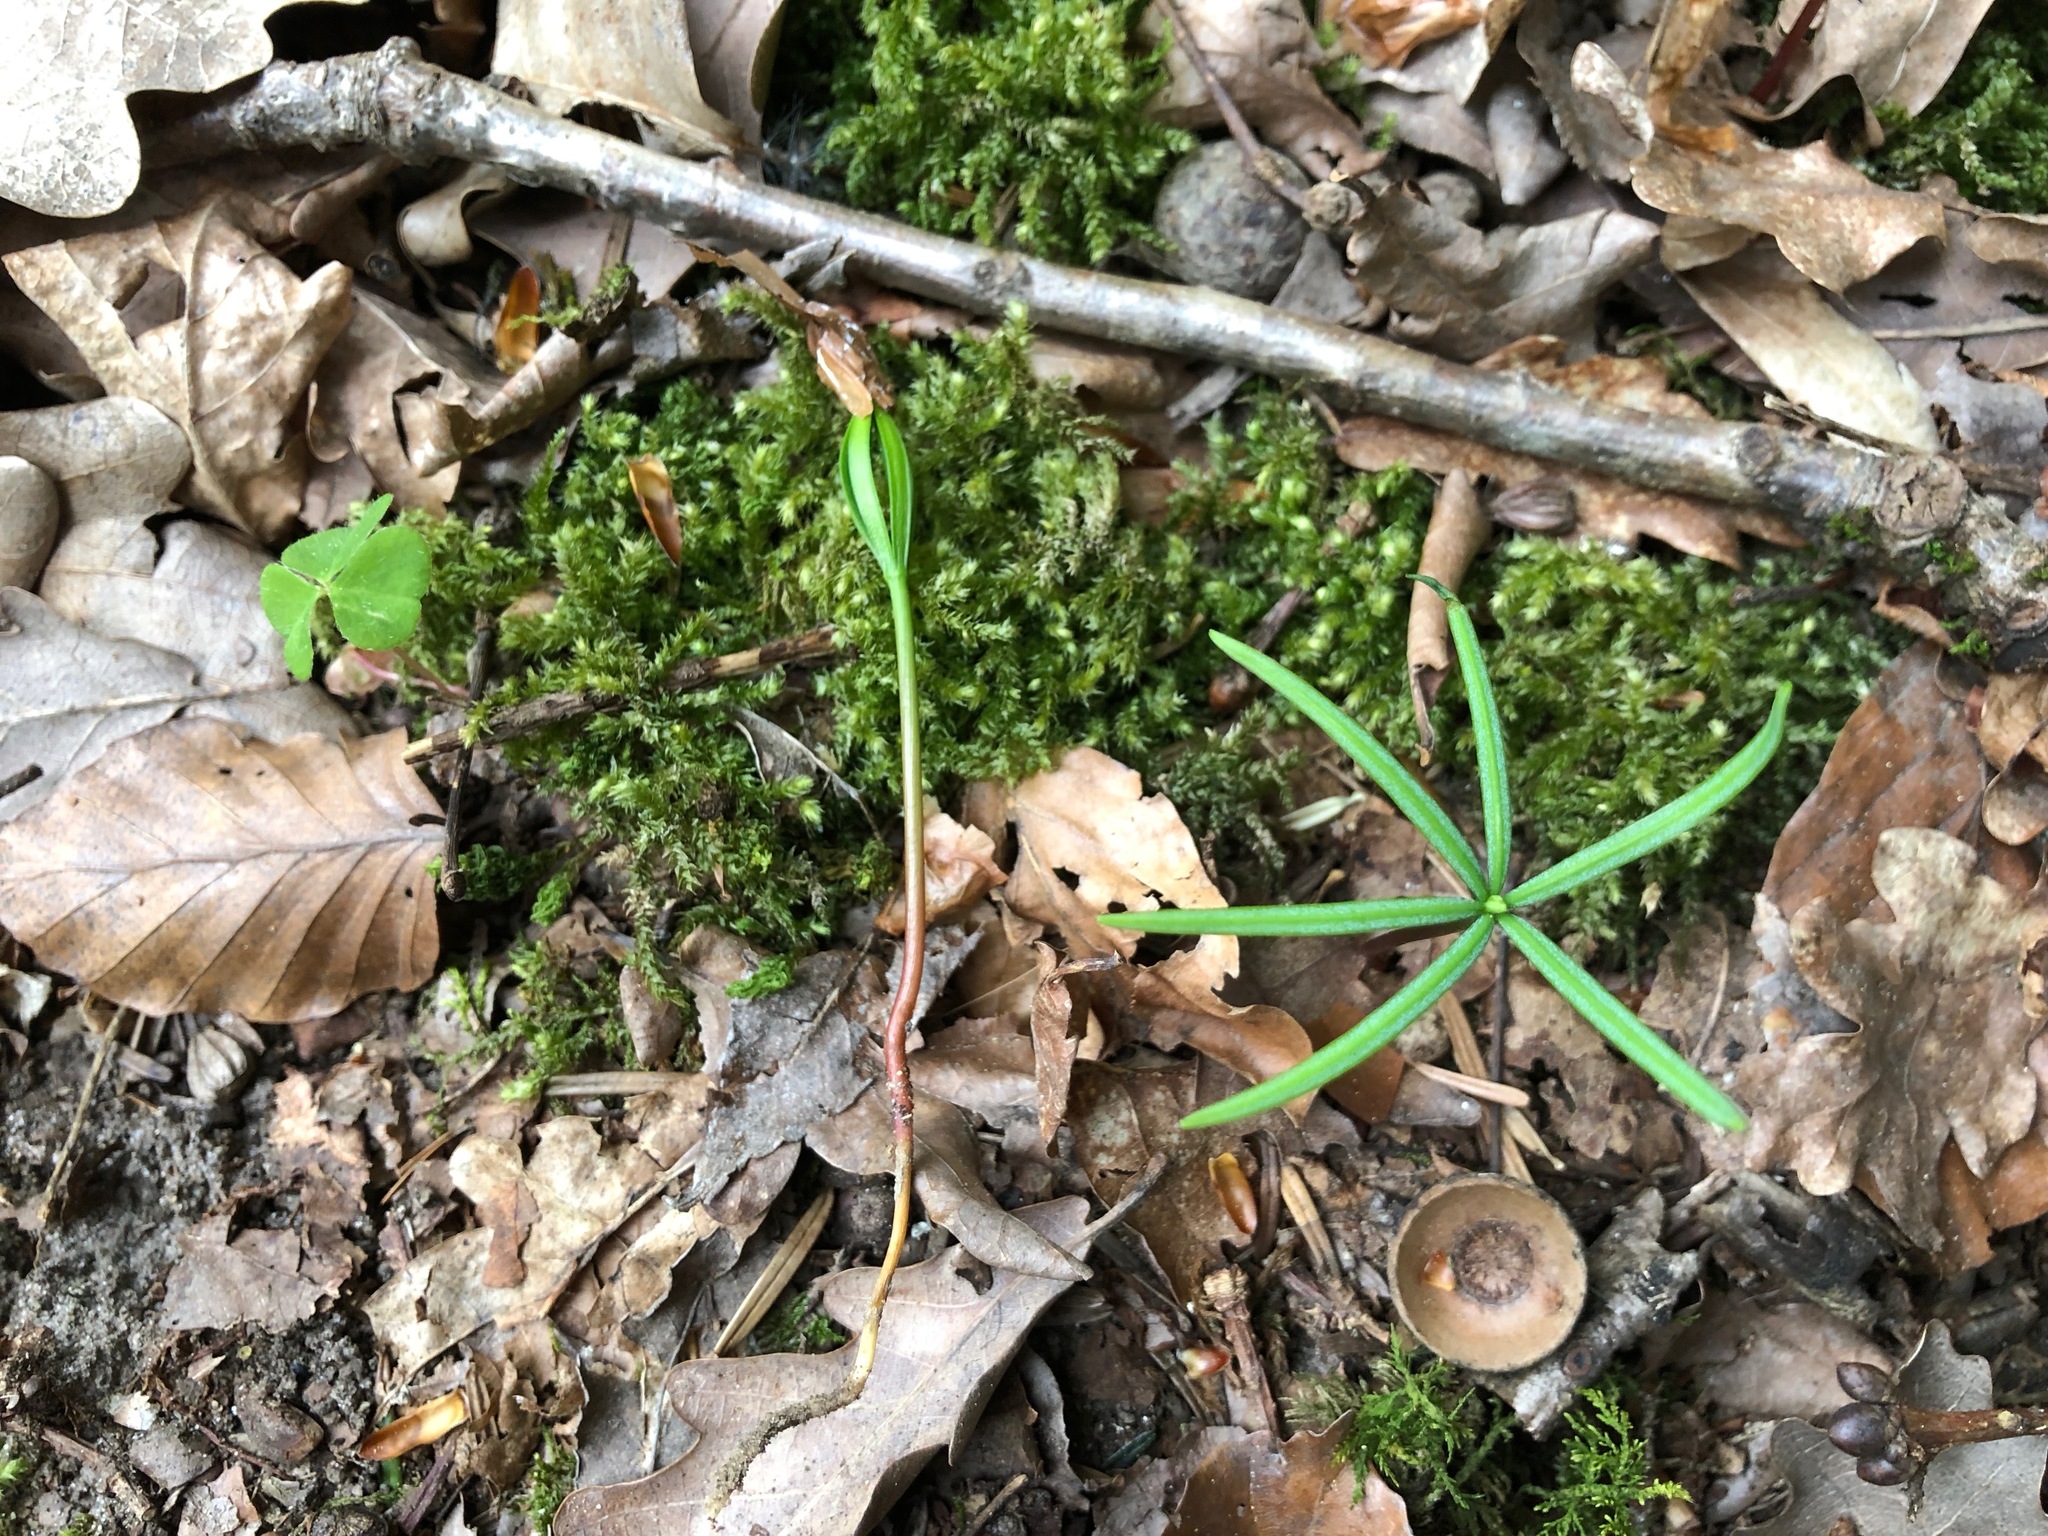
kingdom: Plantae
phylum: Tracheophyta
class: Pinopsida
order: Pinales
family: Pinaceae
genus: Abies
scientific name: Abies alba
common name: Silver fir
